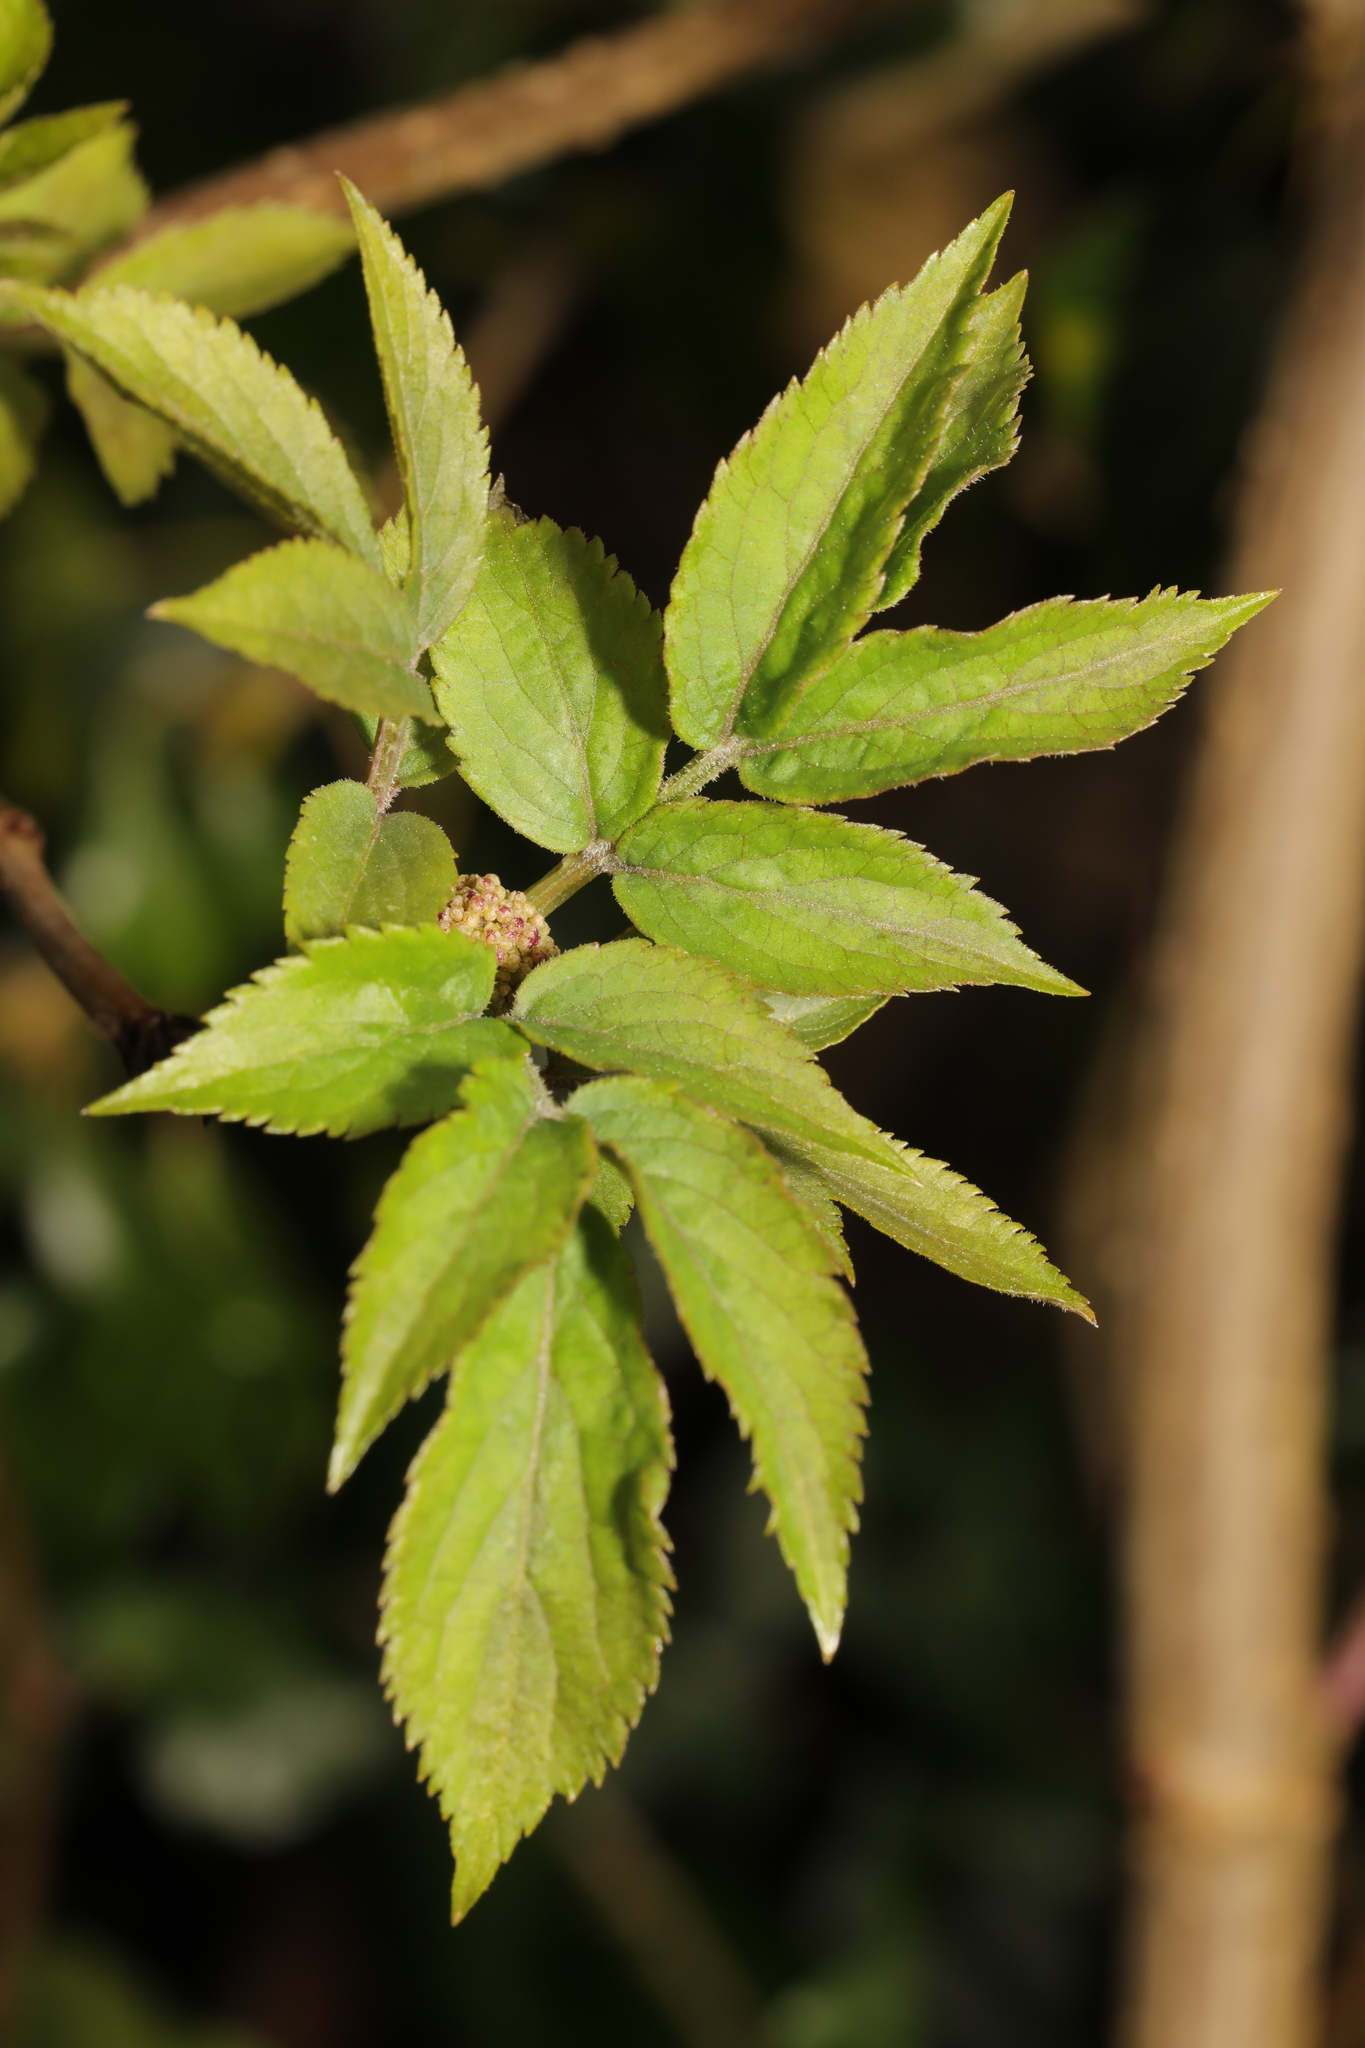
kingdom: Plantae
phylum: Tracheophyta
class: Magnoliopsida
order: Dipsacales
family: Viburnaceae
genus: Sambucus
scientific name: Sambucus nigra
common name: Elder
